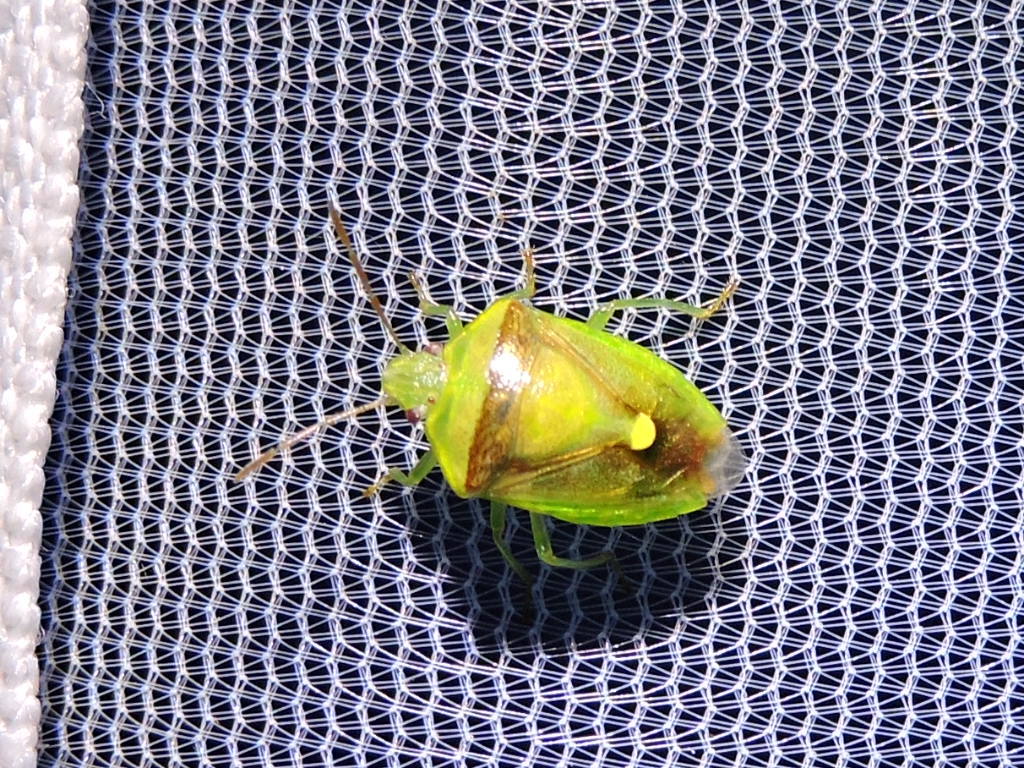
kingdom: Animalia
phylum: Arthropoda
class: Insecta
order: Hemiptera
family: Pentatomidae
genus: Banasa
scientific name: Banasa dimidiata
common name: Green burgundy stink bug
